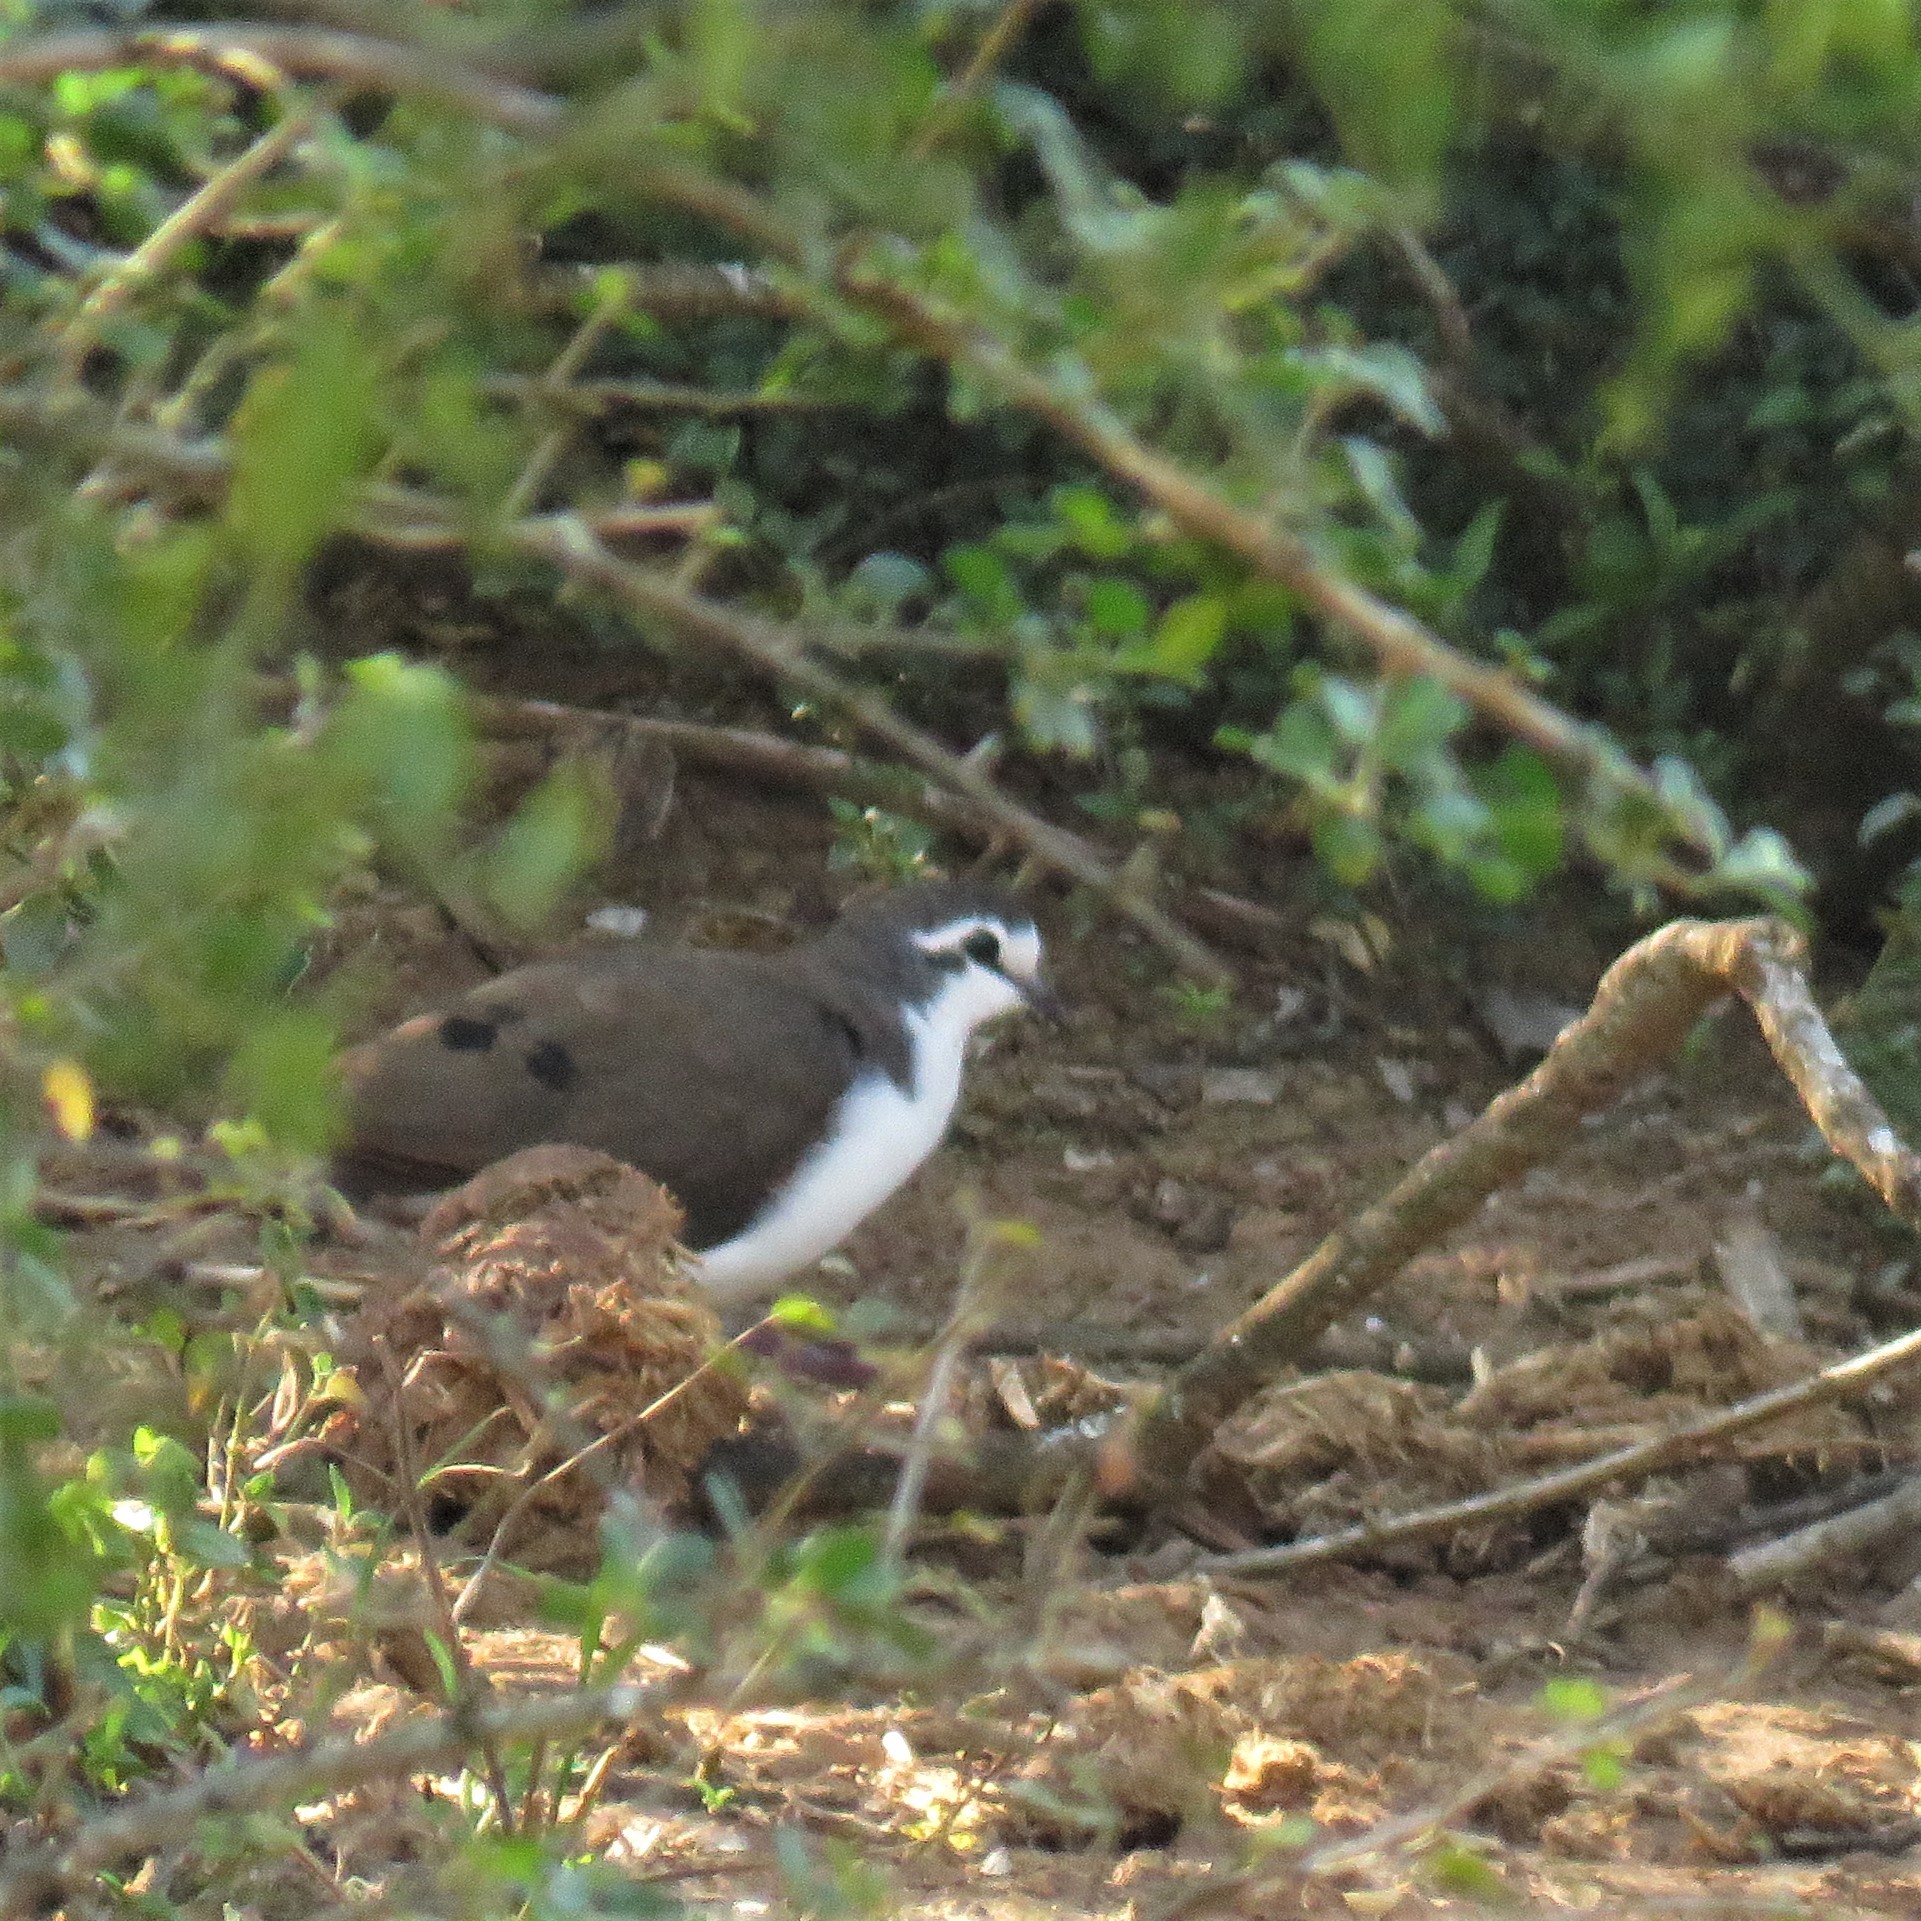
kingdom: Animalia
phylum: Chordata
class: Aves
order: Columbiformes
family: Columbidae
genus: Turtur
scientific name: Turtur tympanistria
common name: Tambourine dove
